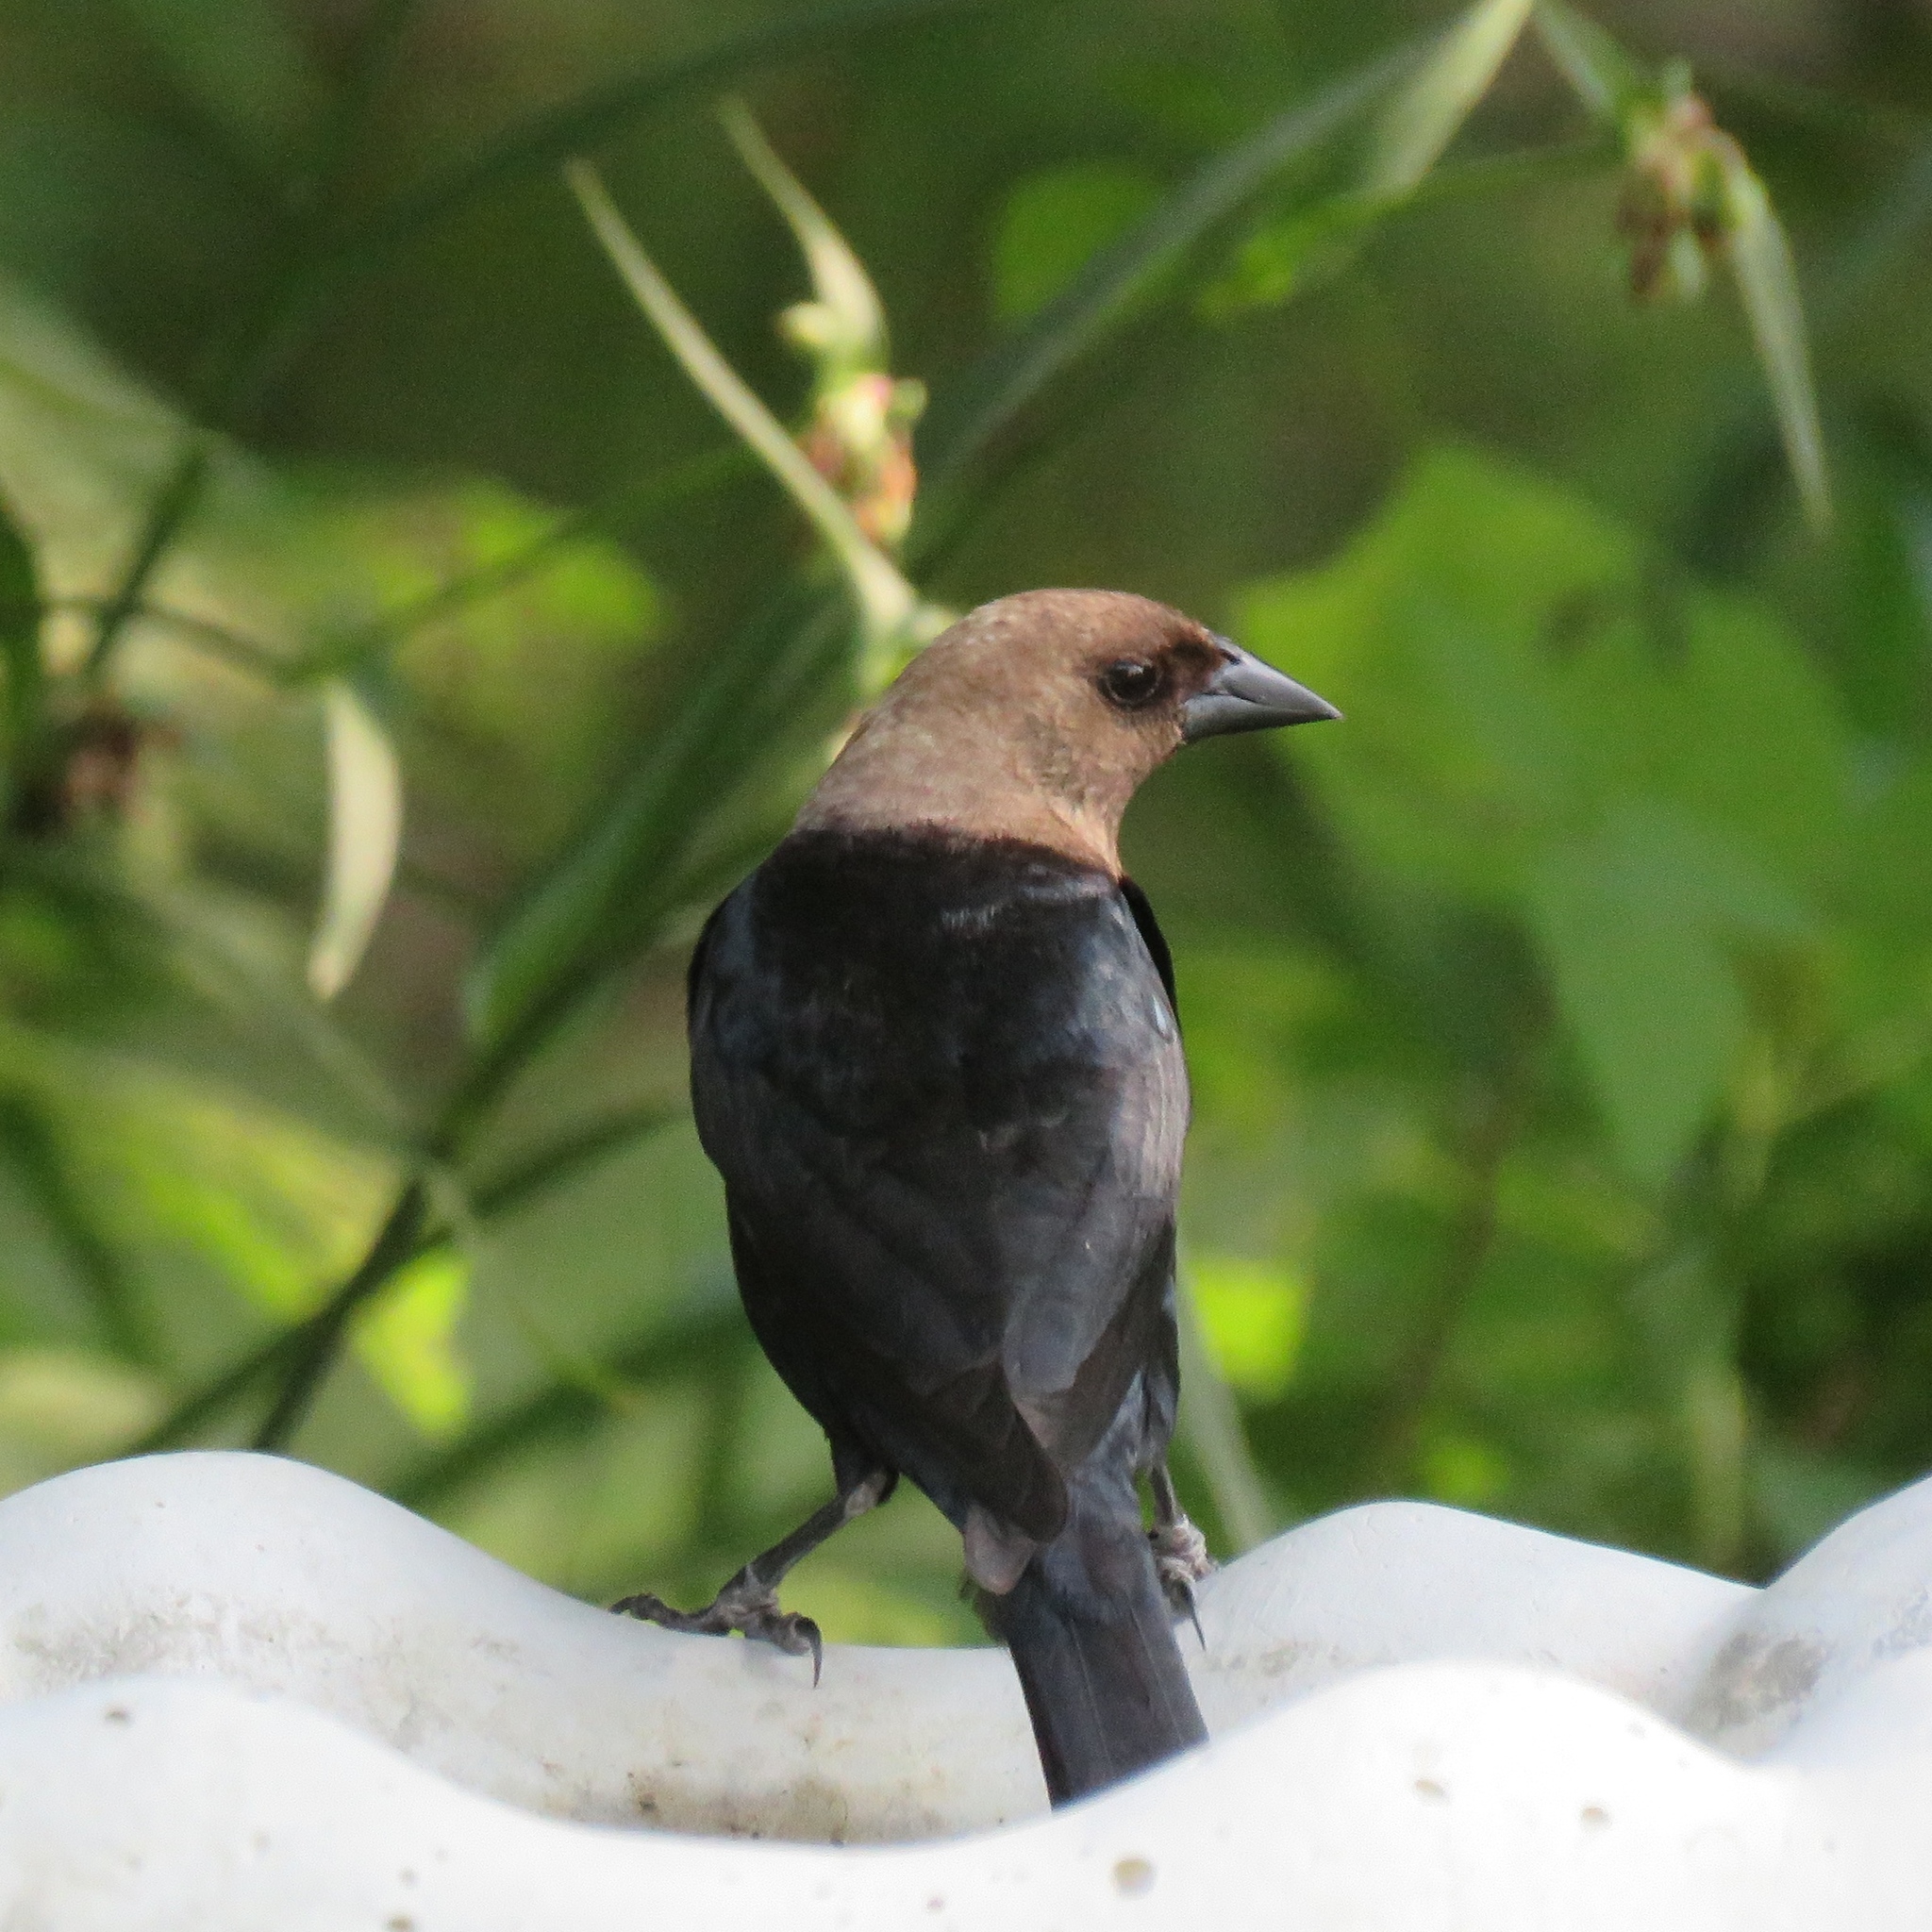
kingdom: Animalia
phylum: Chordata
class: Aves
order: Passeriformes
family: Icteridae
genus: Molothrus
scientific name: Molothrus ater
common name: Brown-headed cowbird
